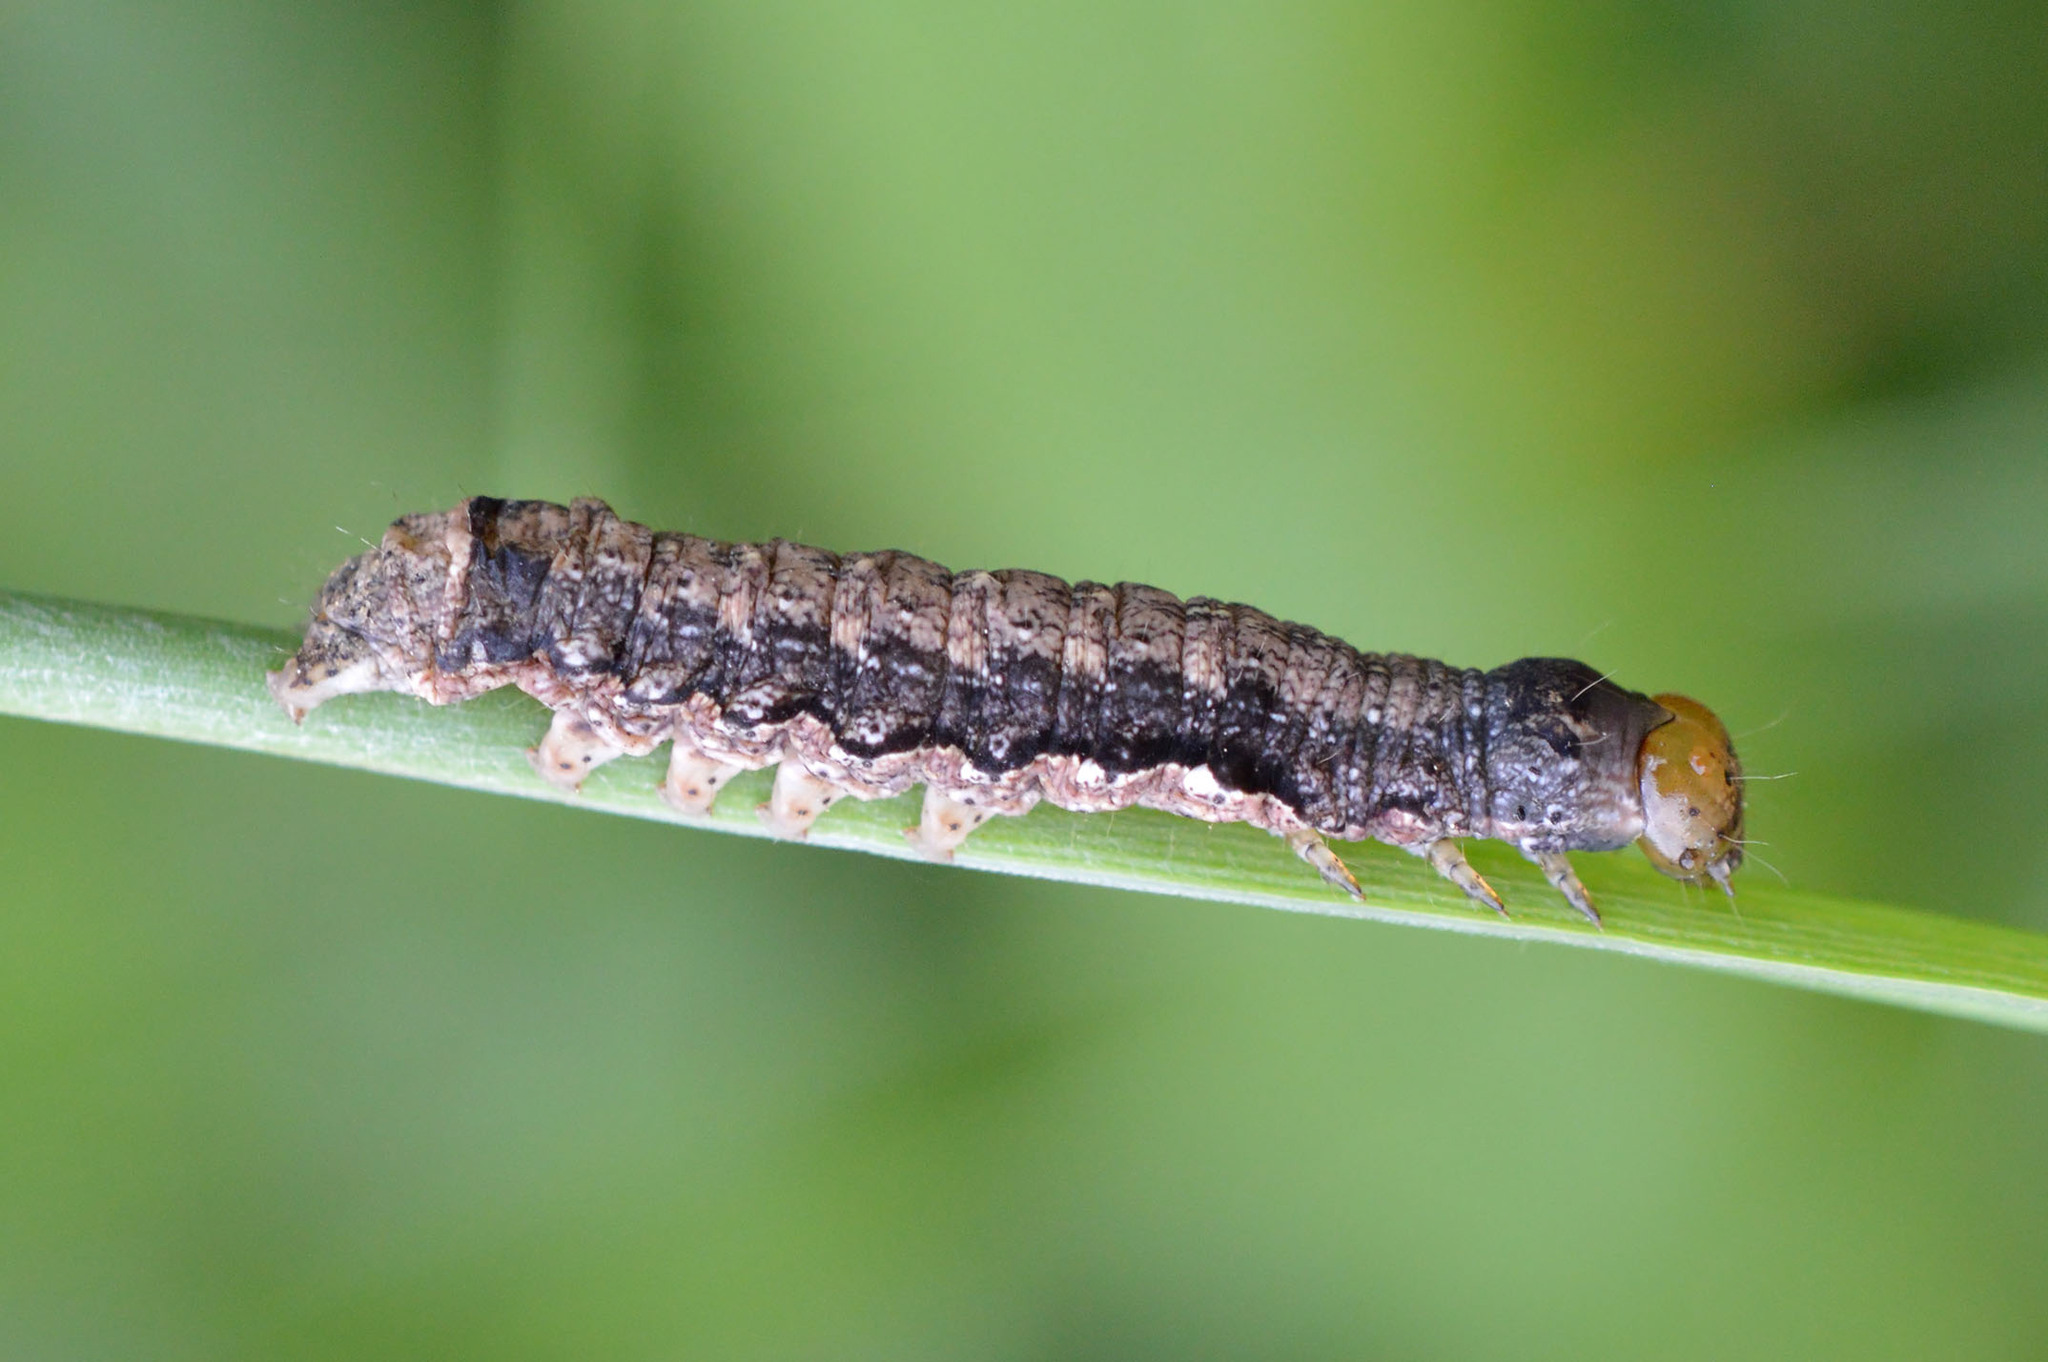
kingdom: Animalia
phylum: Arthropoda
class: Insecta
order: Lepidoptera
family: Noctuidae
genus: Anorthoa
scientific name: Anorthoa munda
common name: Twin-spotted quaker
